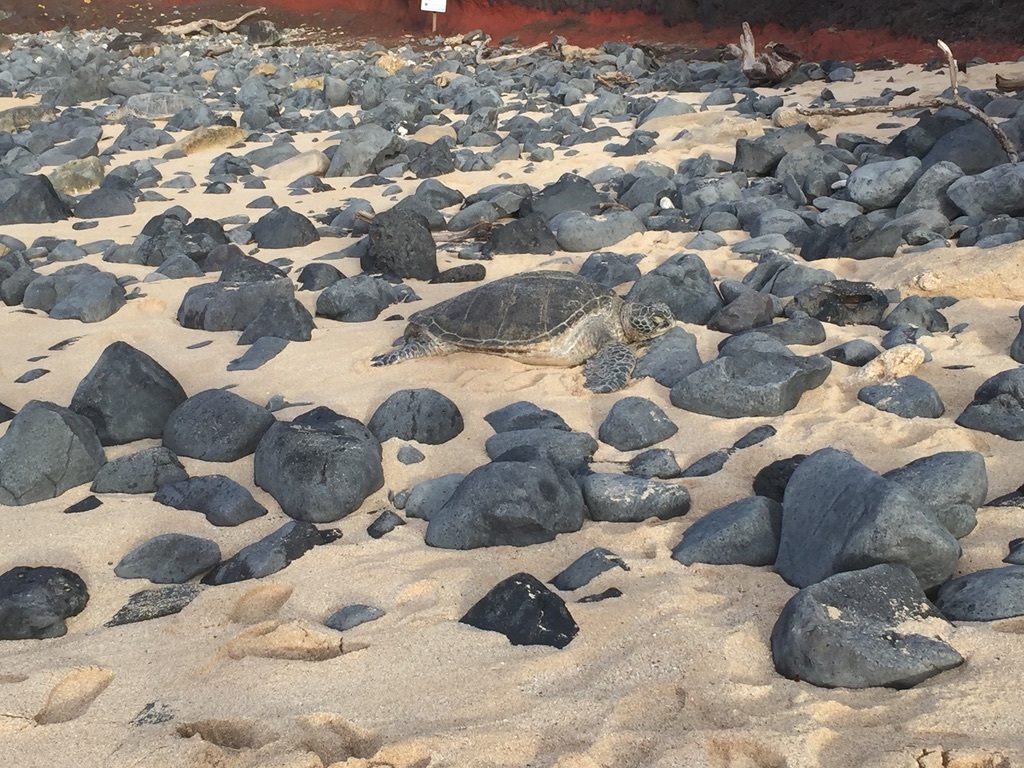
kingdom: Animalia
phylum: Chordata
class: Testudines
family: Cheloniidae
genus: Chelonia
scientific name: Chelonia mydas
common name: Green turtle
